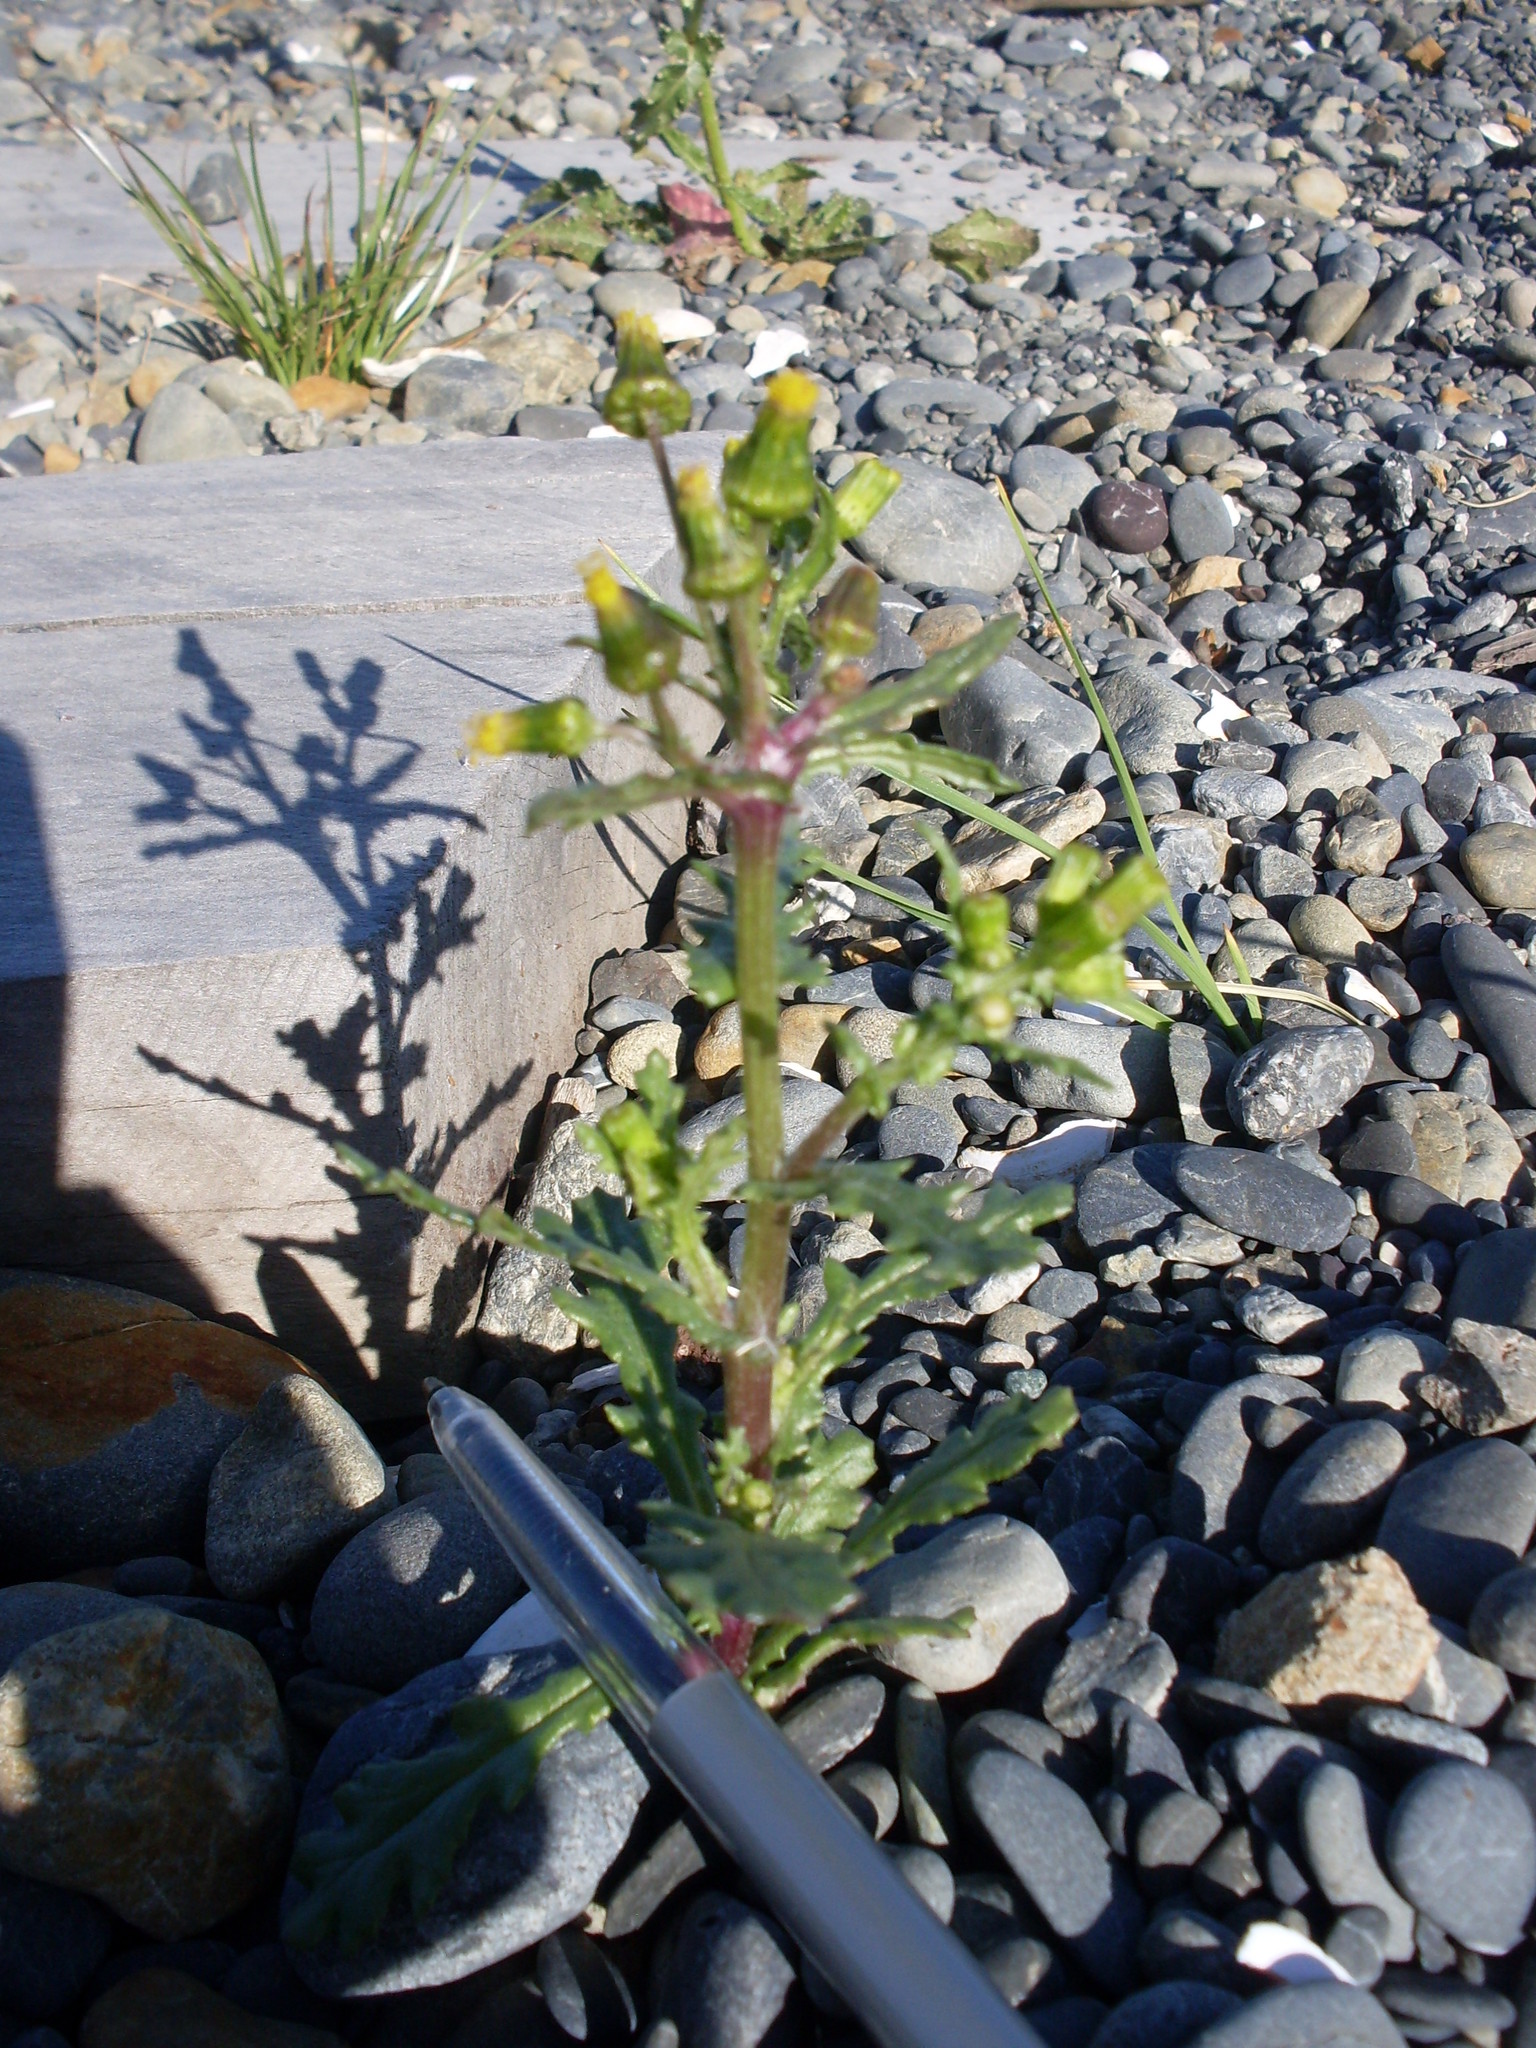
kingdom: Plantae
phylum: Tracheophyta
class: Magnoliopsida
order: Asterales
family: Asteraceae
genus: Senecio
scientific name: Senecio vulgaris
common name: Old-man-in-the-spring
